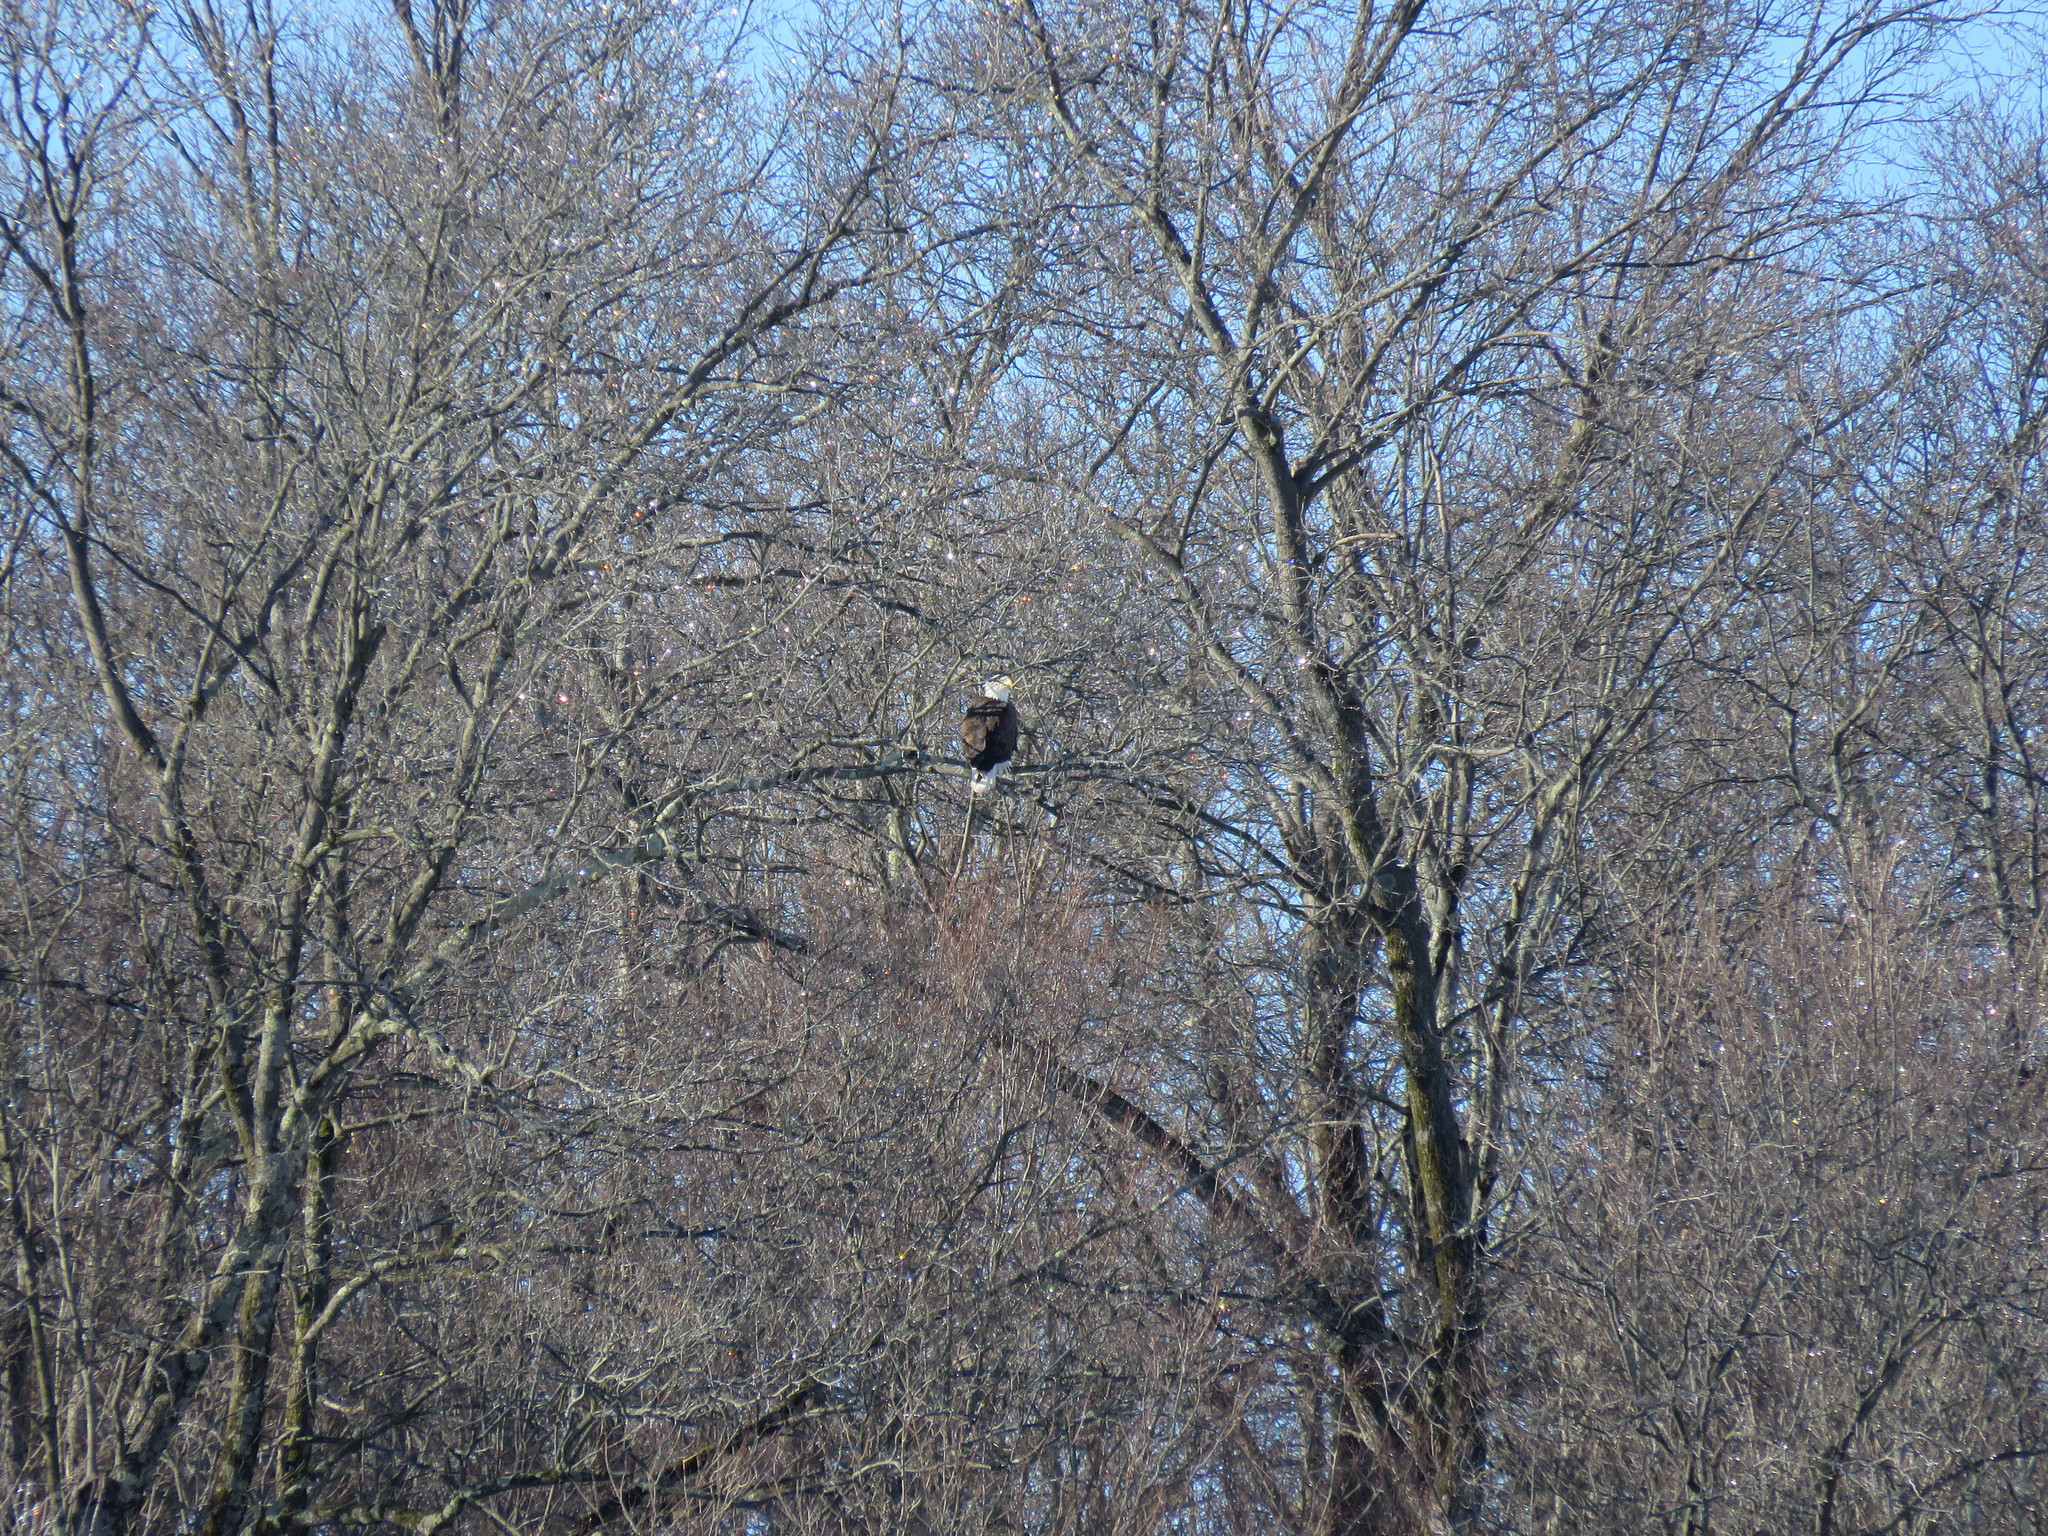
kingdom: Animalia
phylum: Chordata
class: Aves
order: Accipitriformes
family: Accipitridae
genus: Haliaeetus
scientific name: Haliaeetus leucocephalus
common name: Bald eagle
